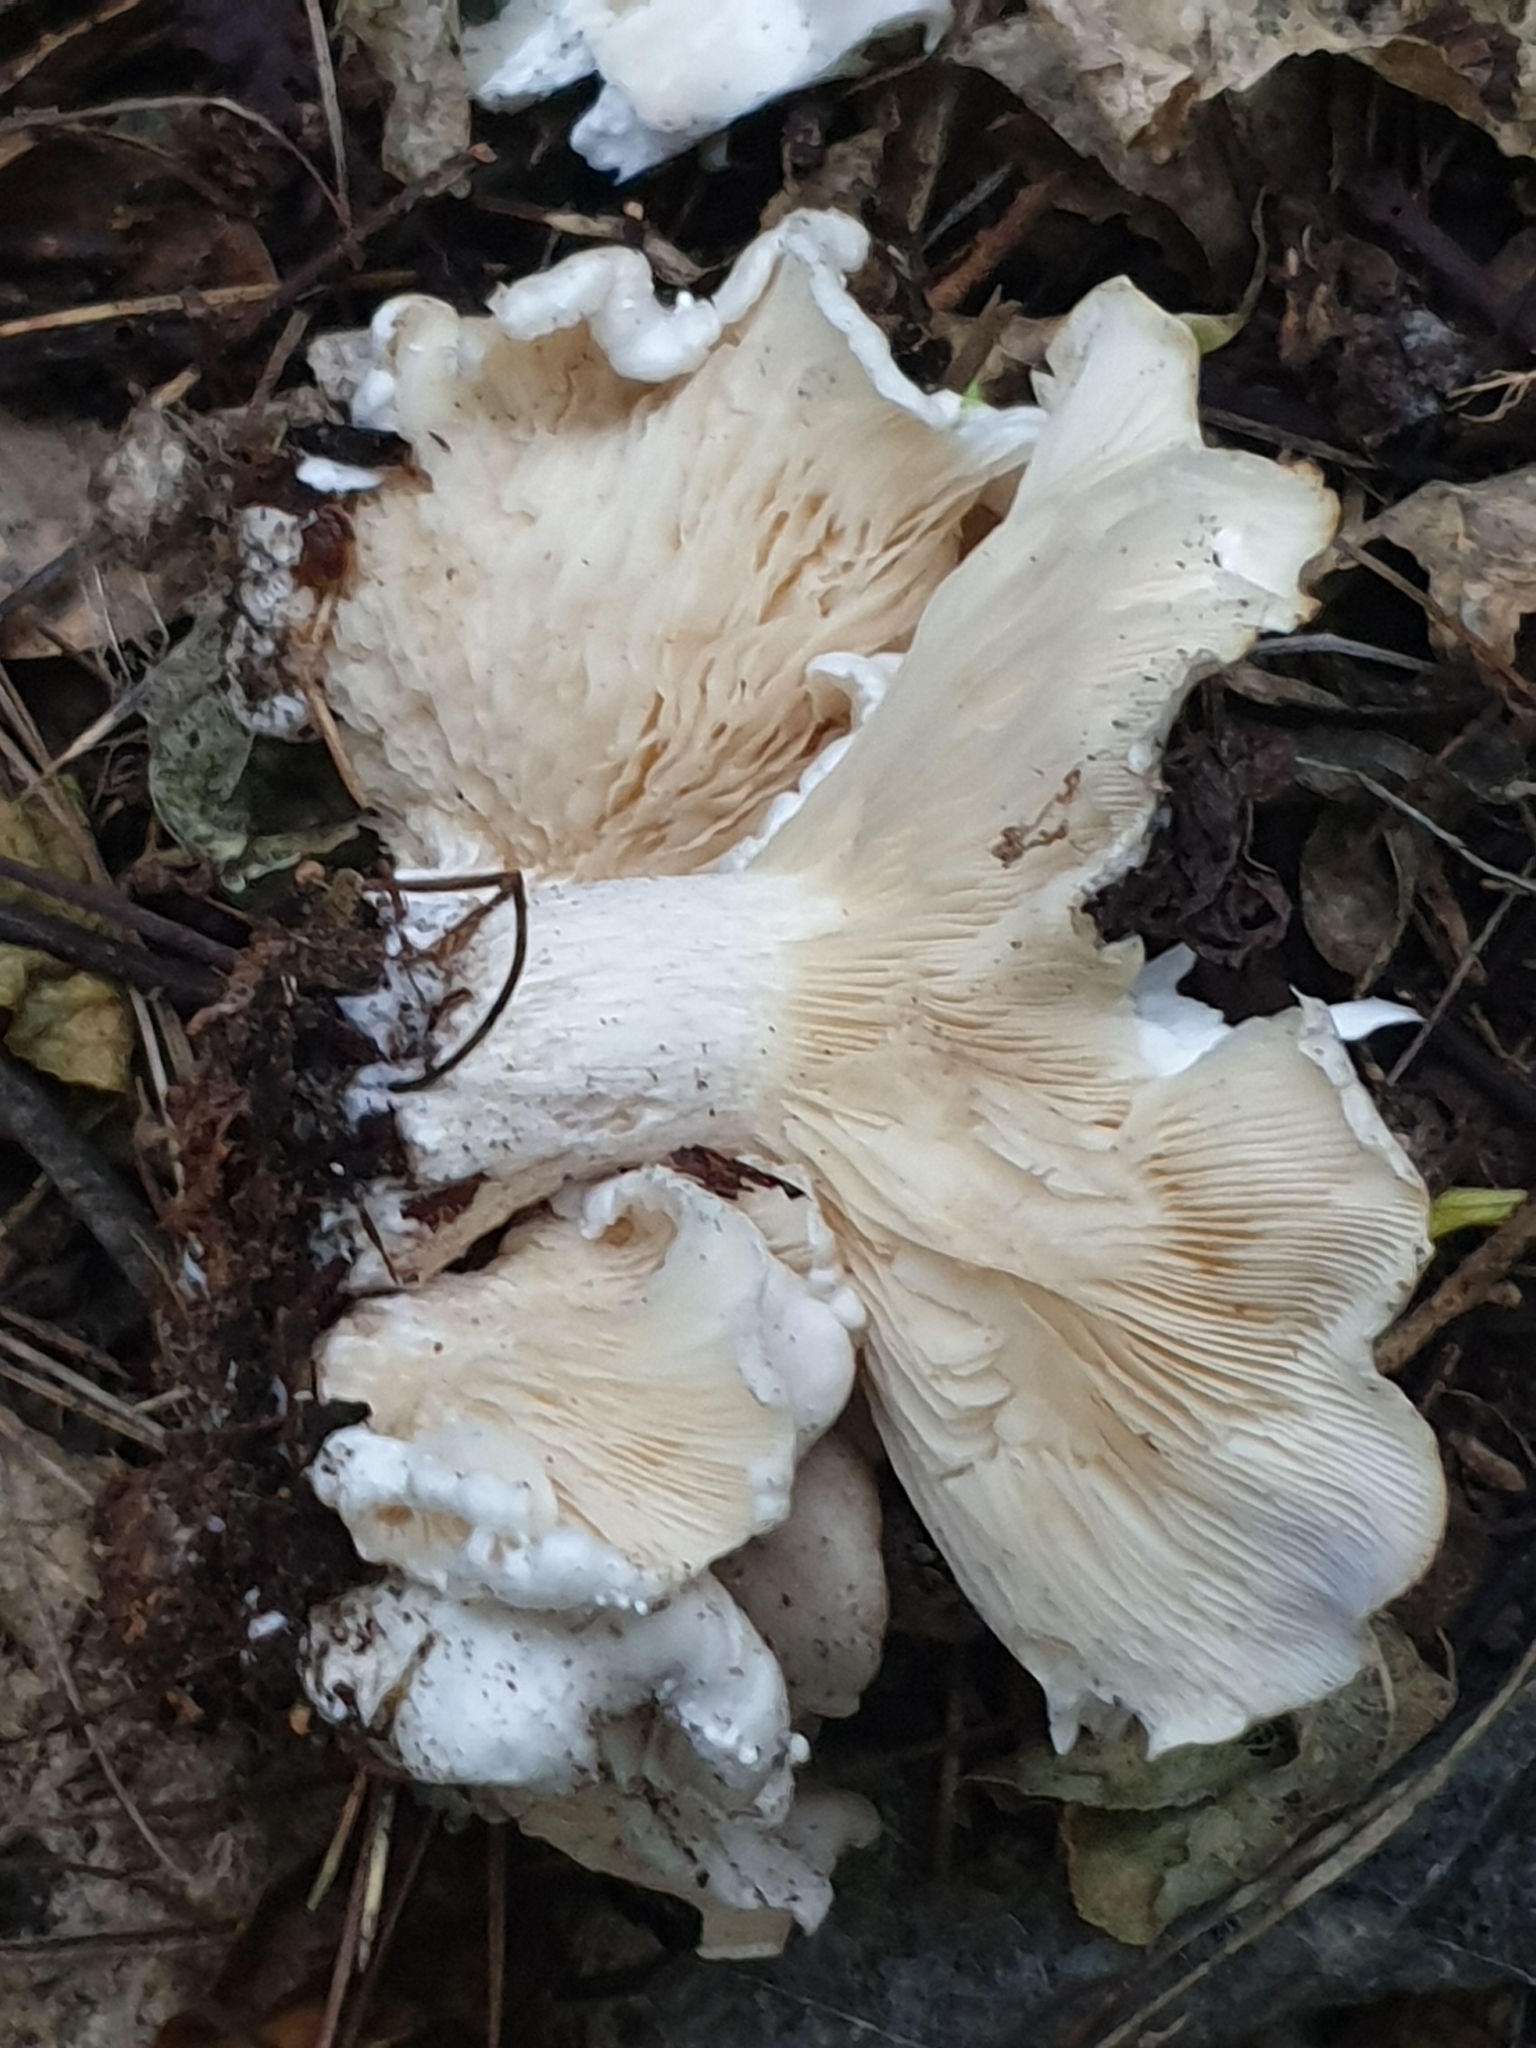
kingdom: Fungi
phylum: Basidiomycota
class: Agaricomycetes
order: Agaricales
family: Tricholomataceae
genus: Clitocybe
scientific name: Clitocybe nebularis
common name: Clouded agaric
